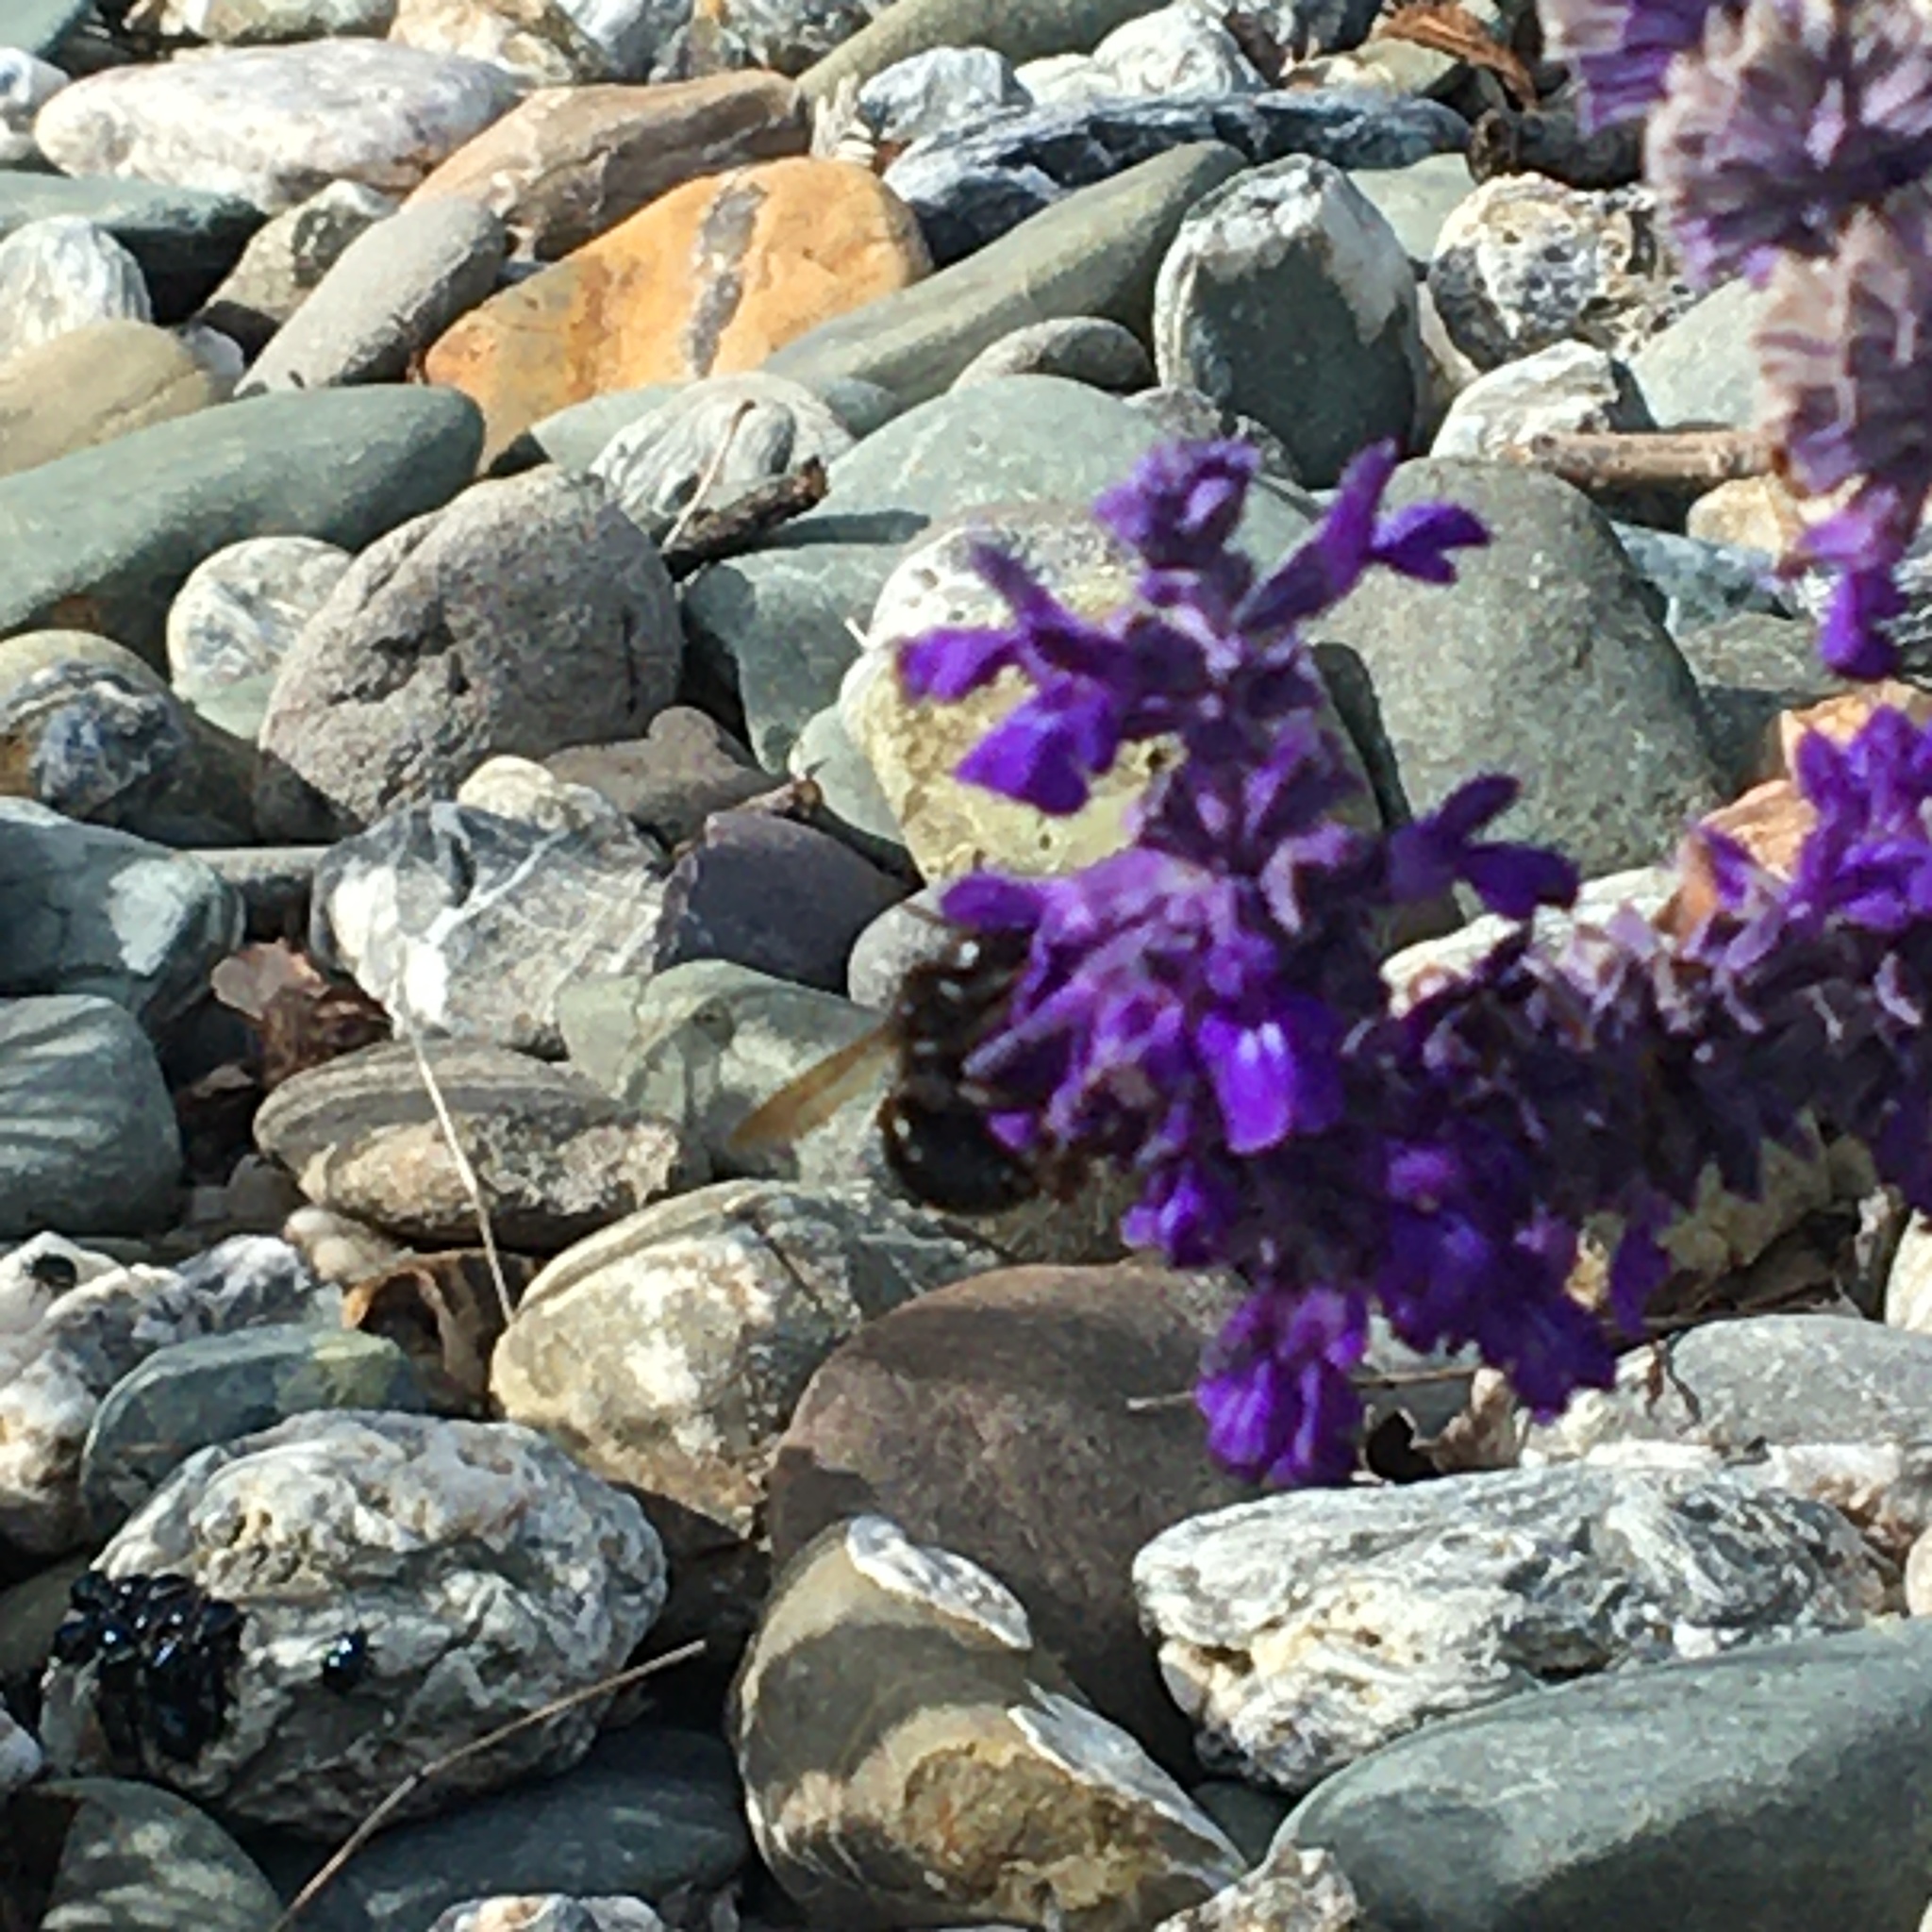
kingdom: Animalia
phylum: Arthropoda
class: Insecta
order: Hymenoptera
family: Apidae
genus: Xylocopa
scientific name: Xylocopa sonorina
